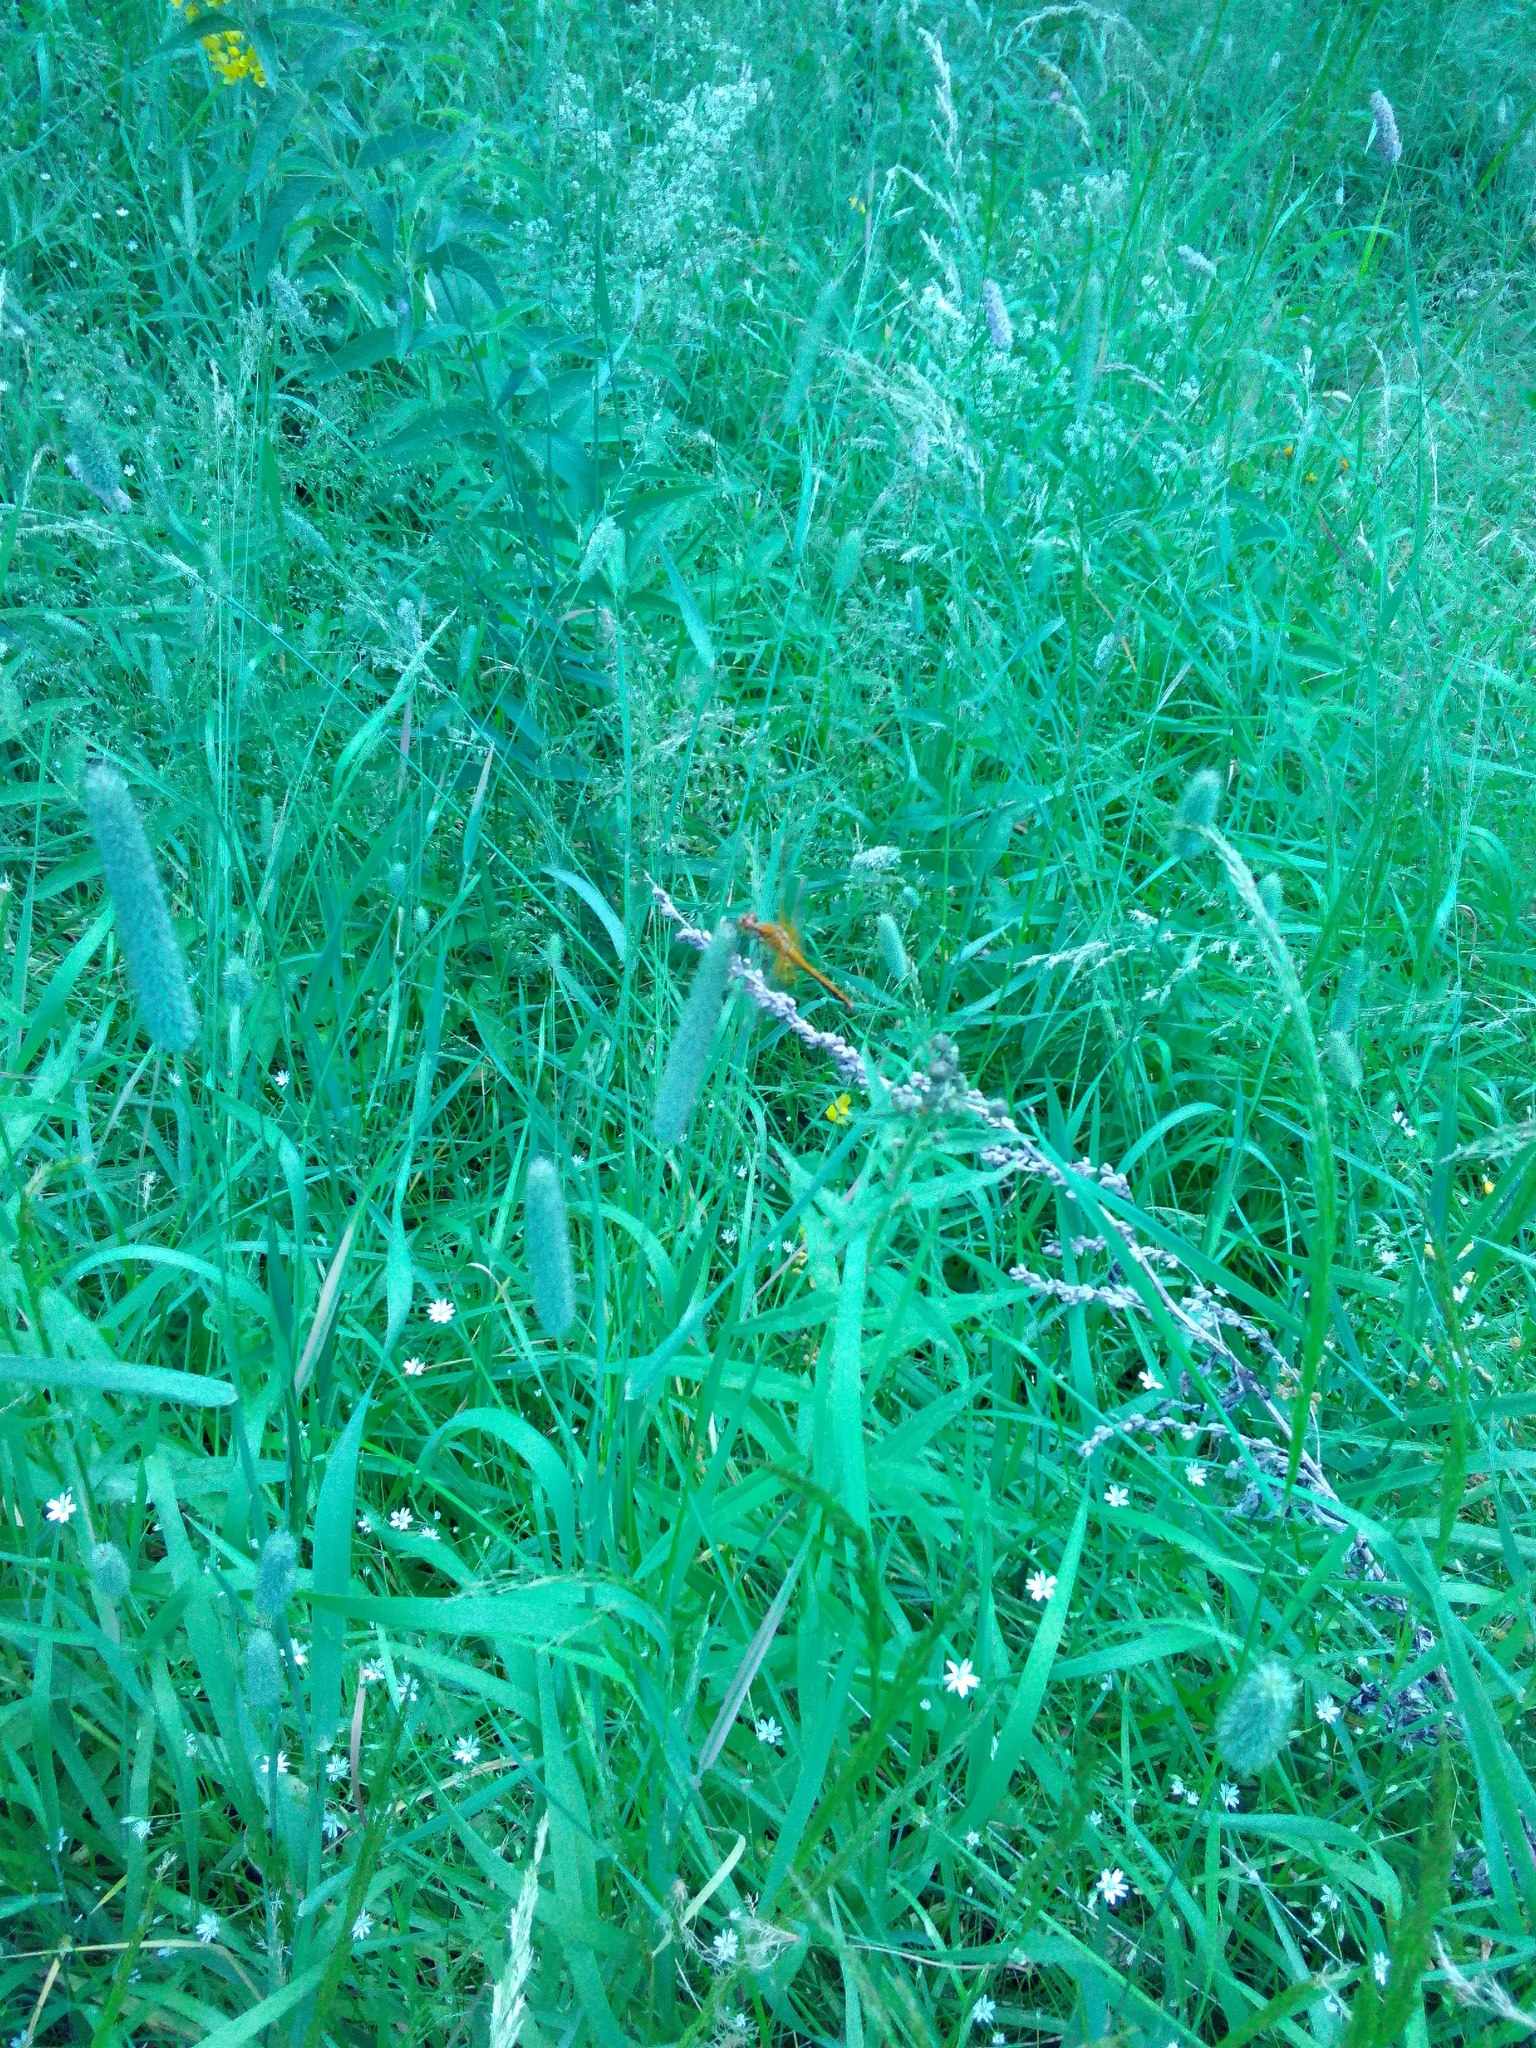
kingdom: Plantae
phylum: Tracheophyta
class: Liliopsida
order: Poales
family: Poaceae
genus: Phleum
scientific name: Phleum pratense
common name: Timothy grass
